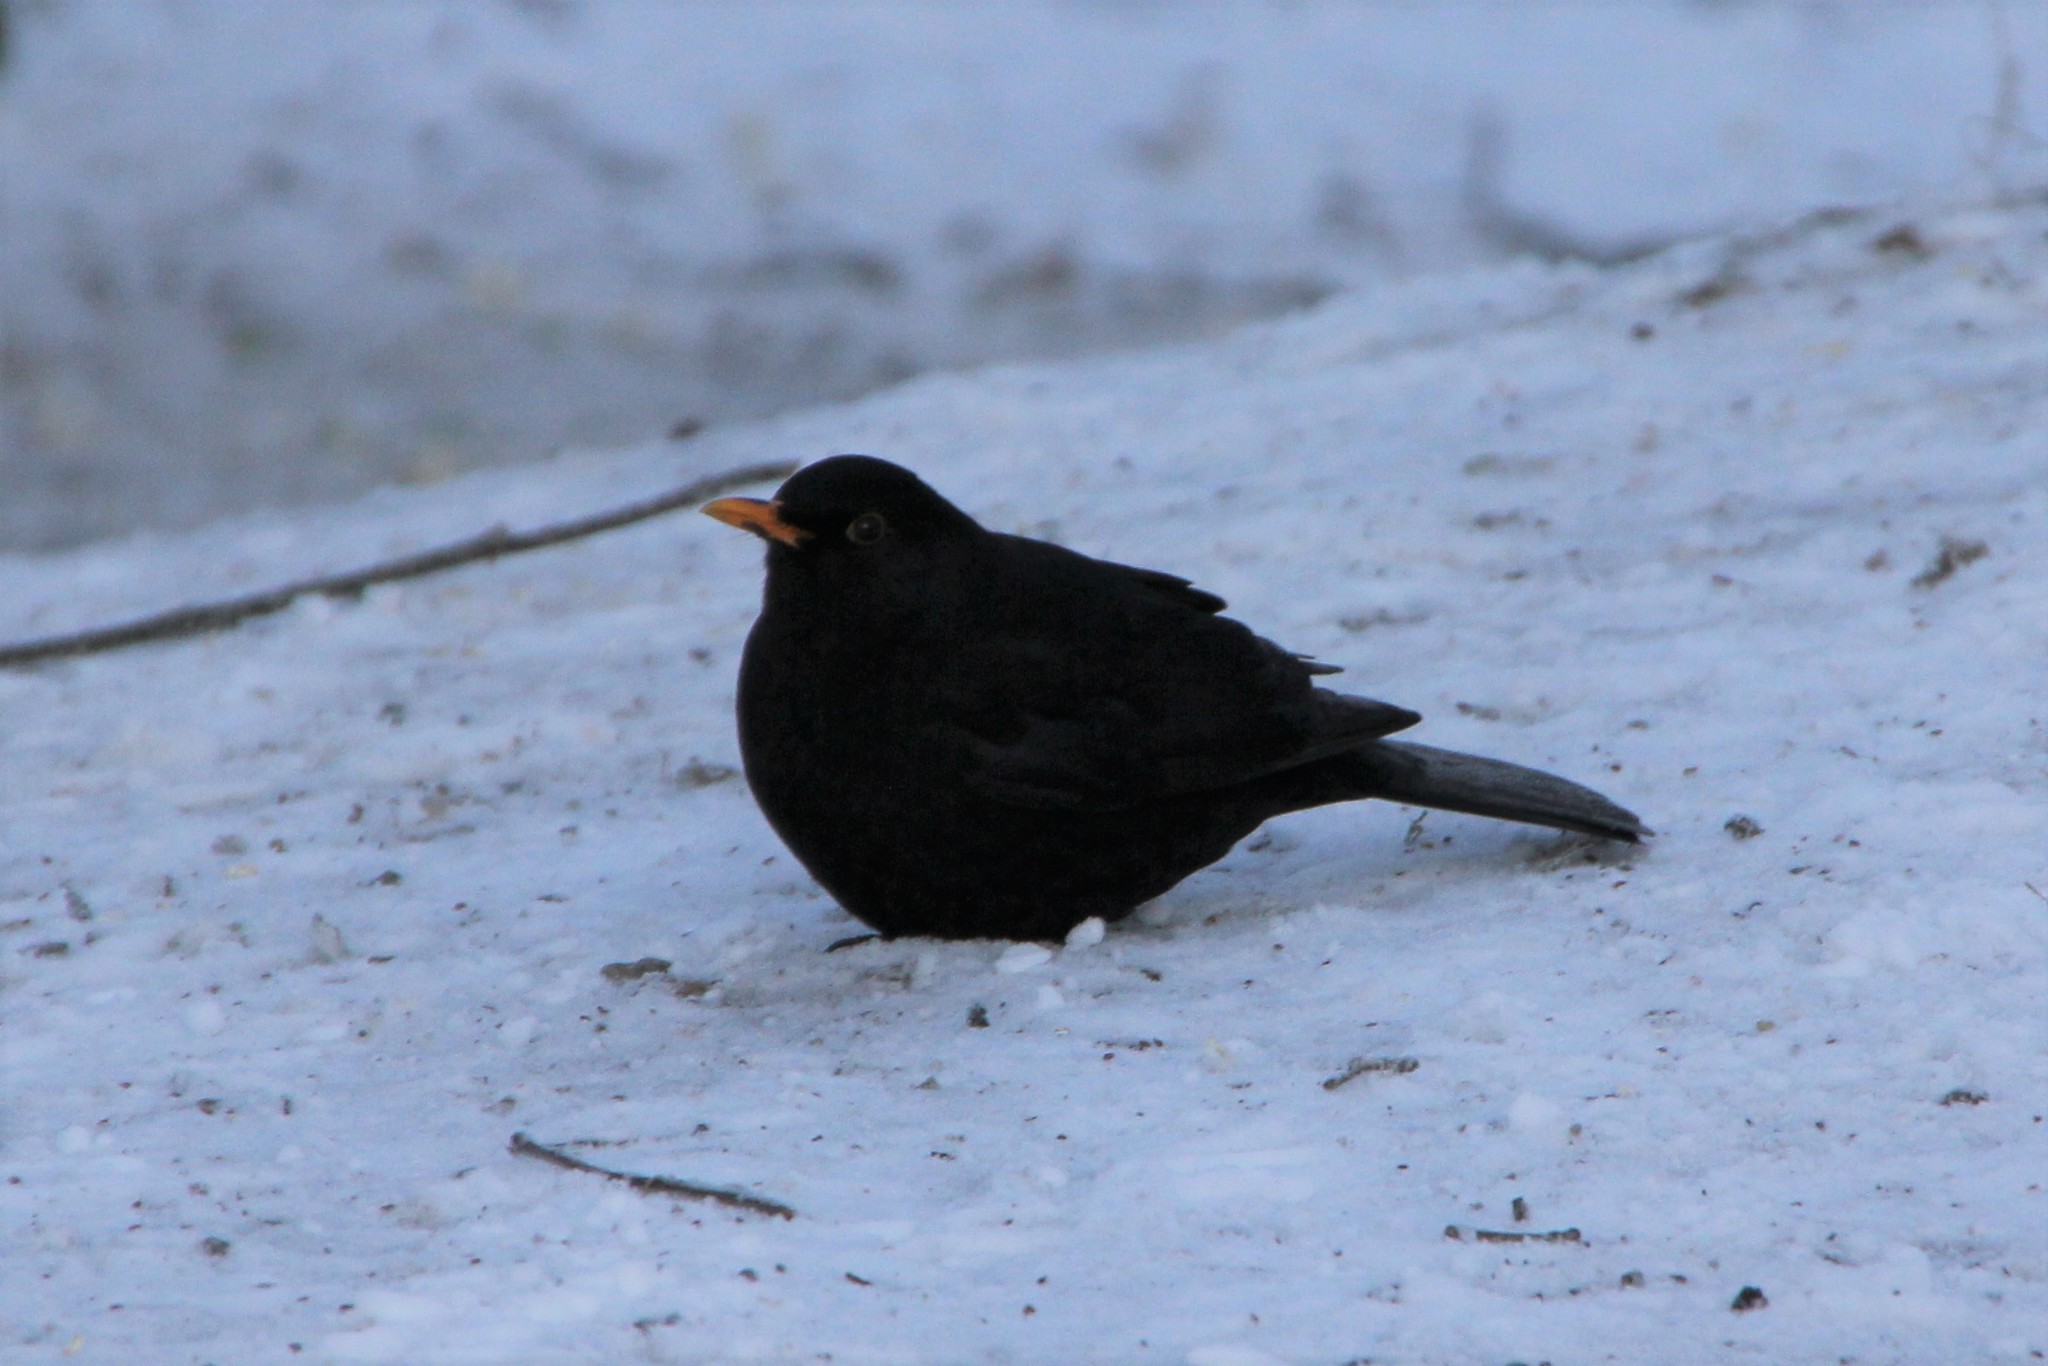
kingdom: Animalia
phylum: Chordata
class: Aves
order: Passeriformes
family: Turdidae
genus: Turdus
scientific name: Turdus merula
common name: Common blackbird
